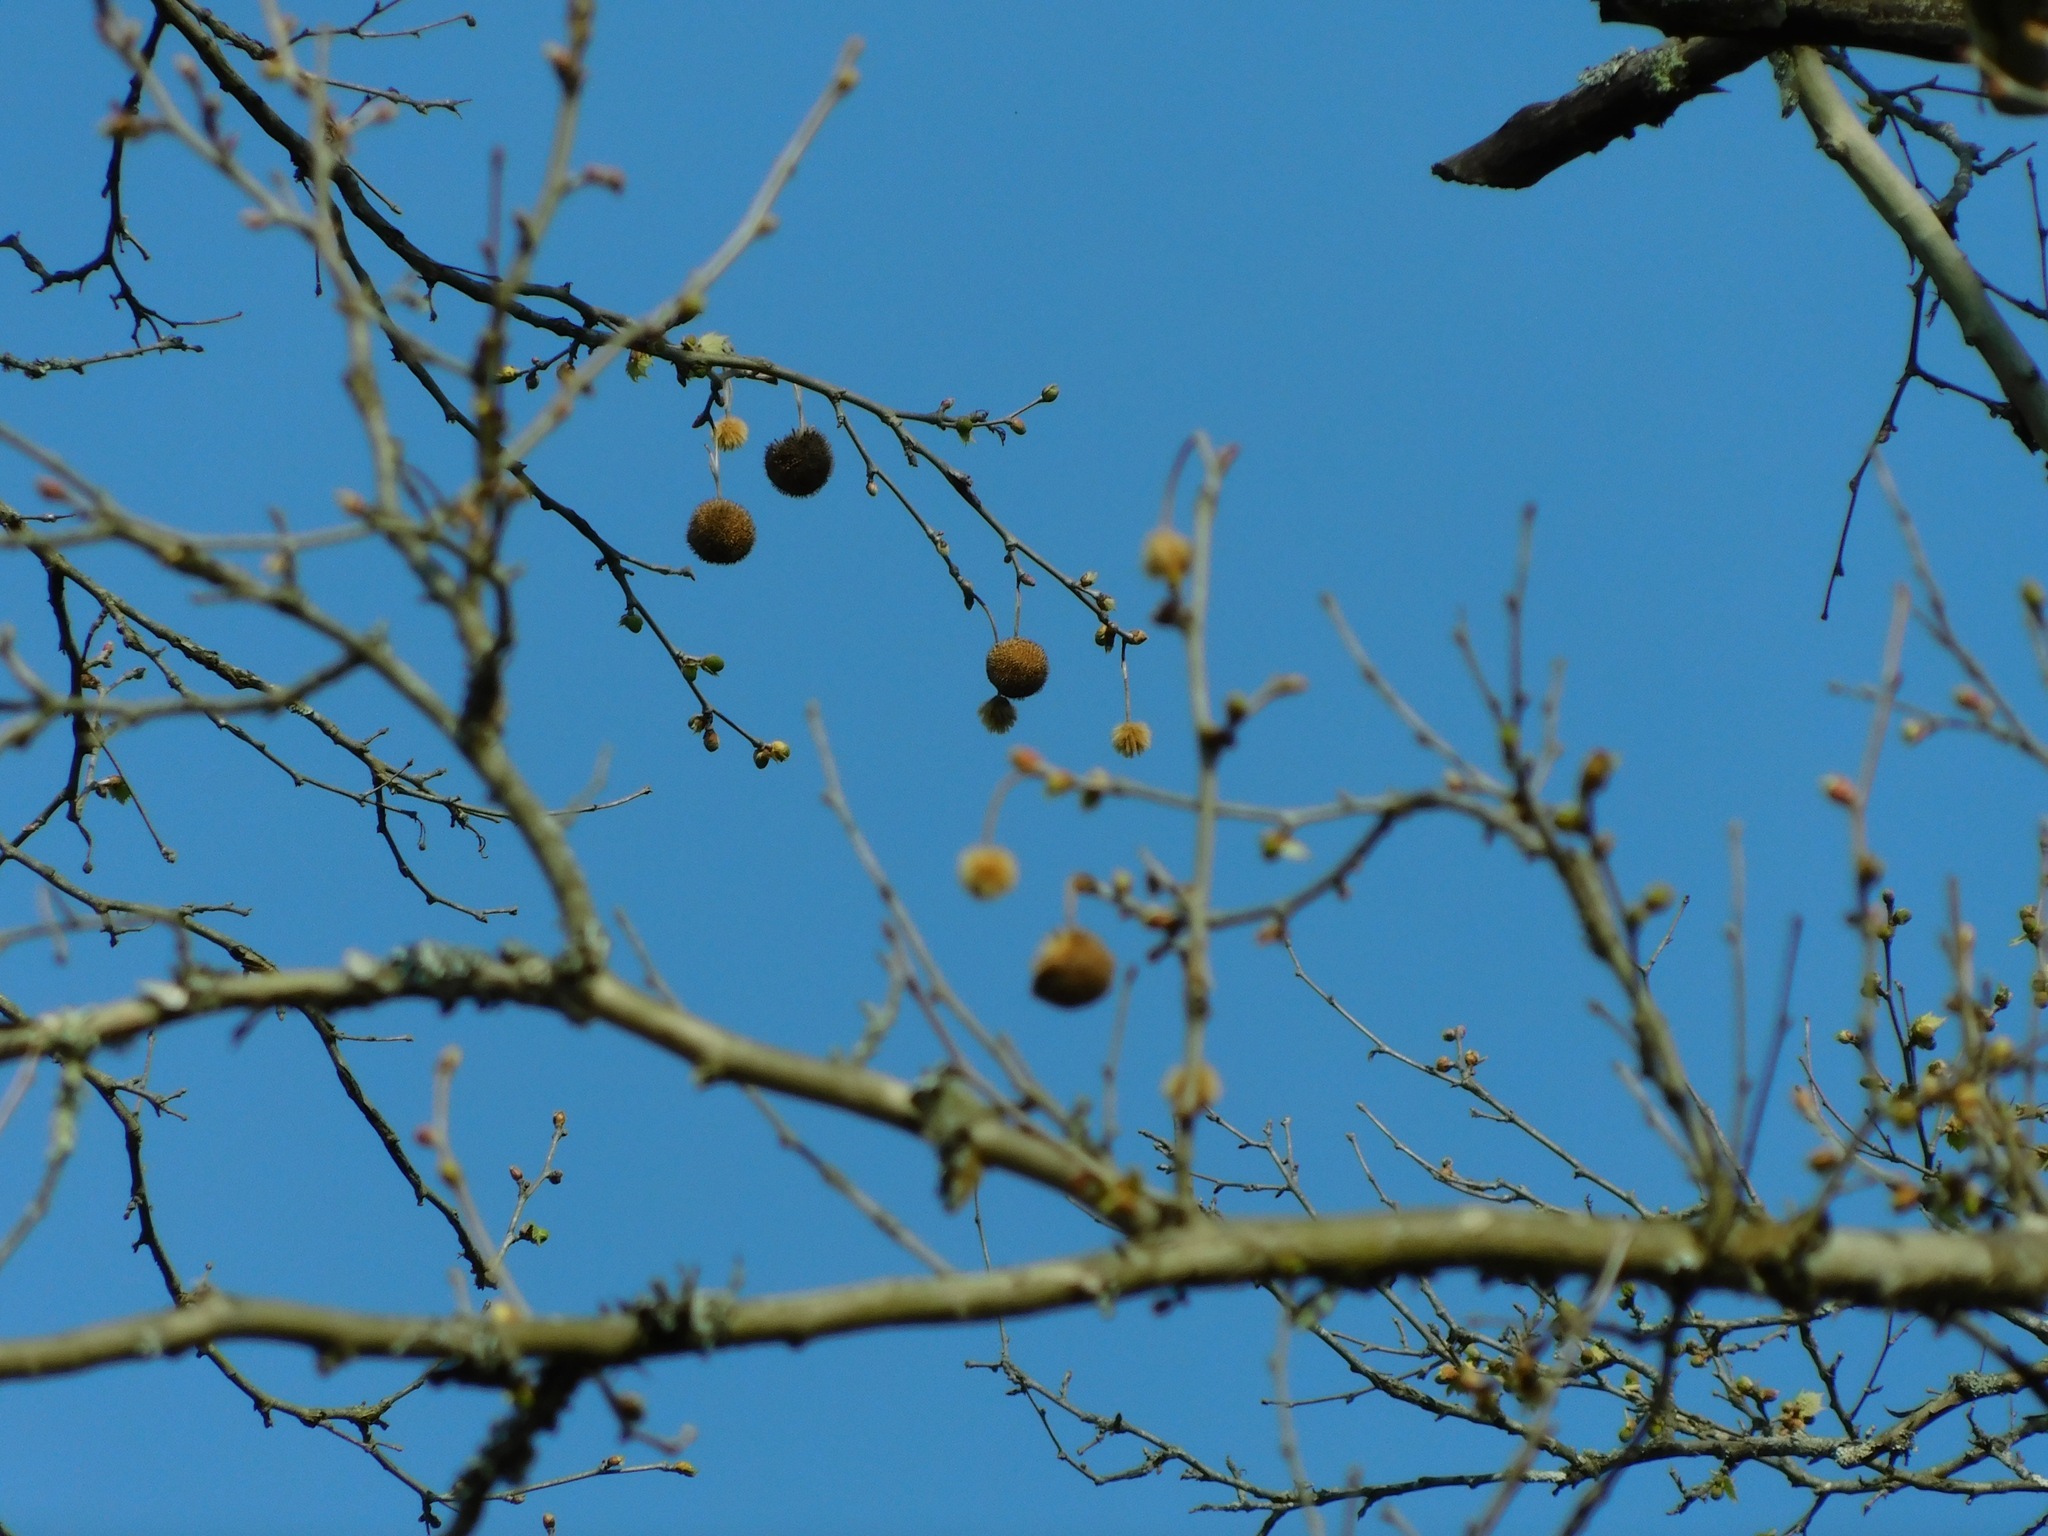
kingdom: Plantae
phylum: Tracheophyta
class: Magnoliopsida
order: Proteales
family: Platanaceae
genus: Platanus
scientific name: Platanus occidentalis
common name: American sycamore
